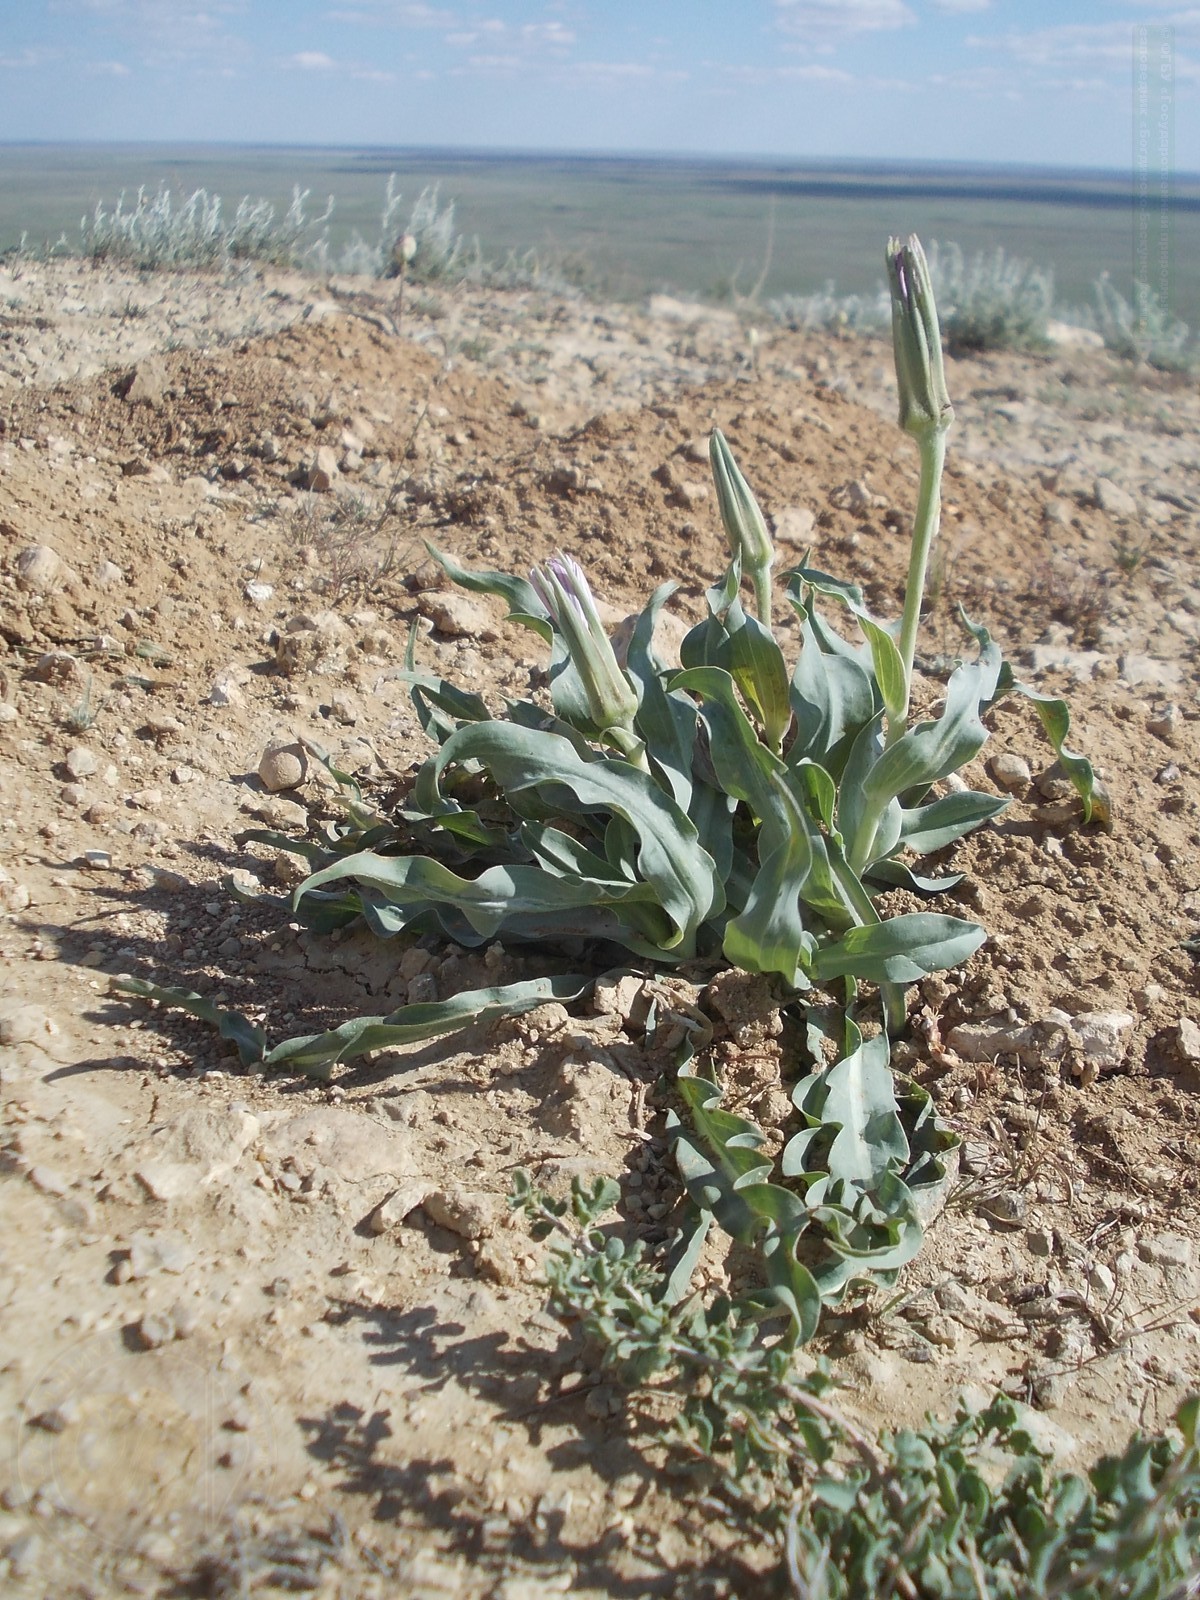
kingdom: Plantae
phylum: Tracheophyta
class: Magnoliopsida
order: Asterales
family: Asteraceae
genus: Tragopogon
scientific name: Tragopogon marginifolius
